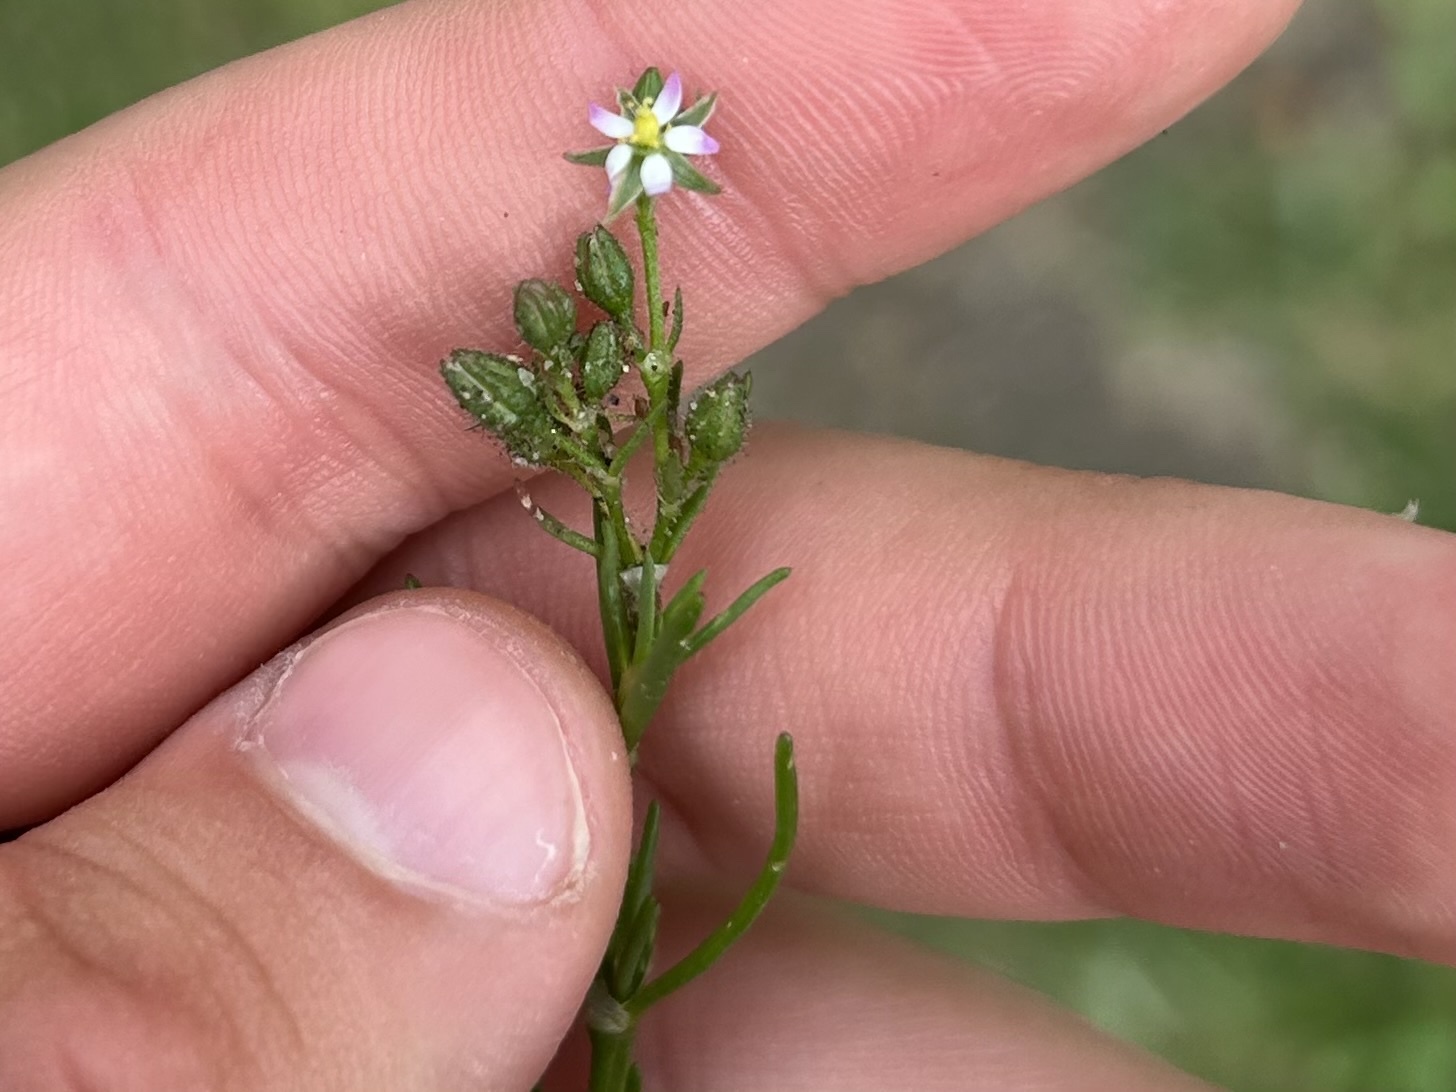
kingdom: Plantae
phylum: Tracheophyta
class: Magnoliopsida
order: Caryophyllales
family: Caryophyllaceae
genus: Spergularia
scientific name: Spergularia marina
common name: Lesser sea-spurrey
